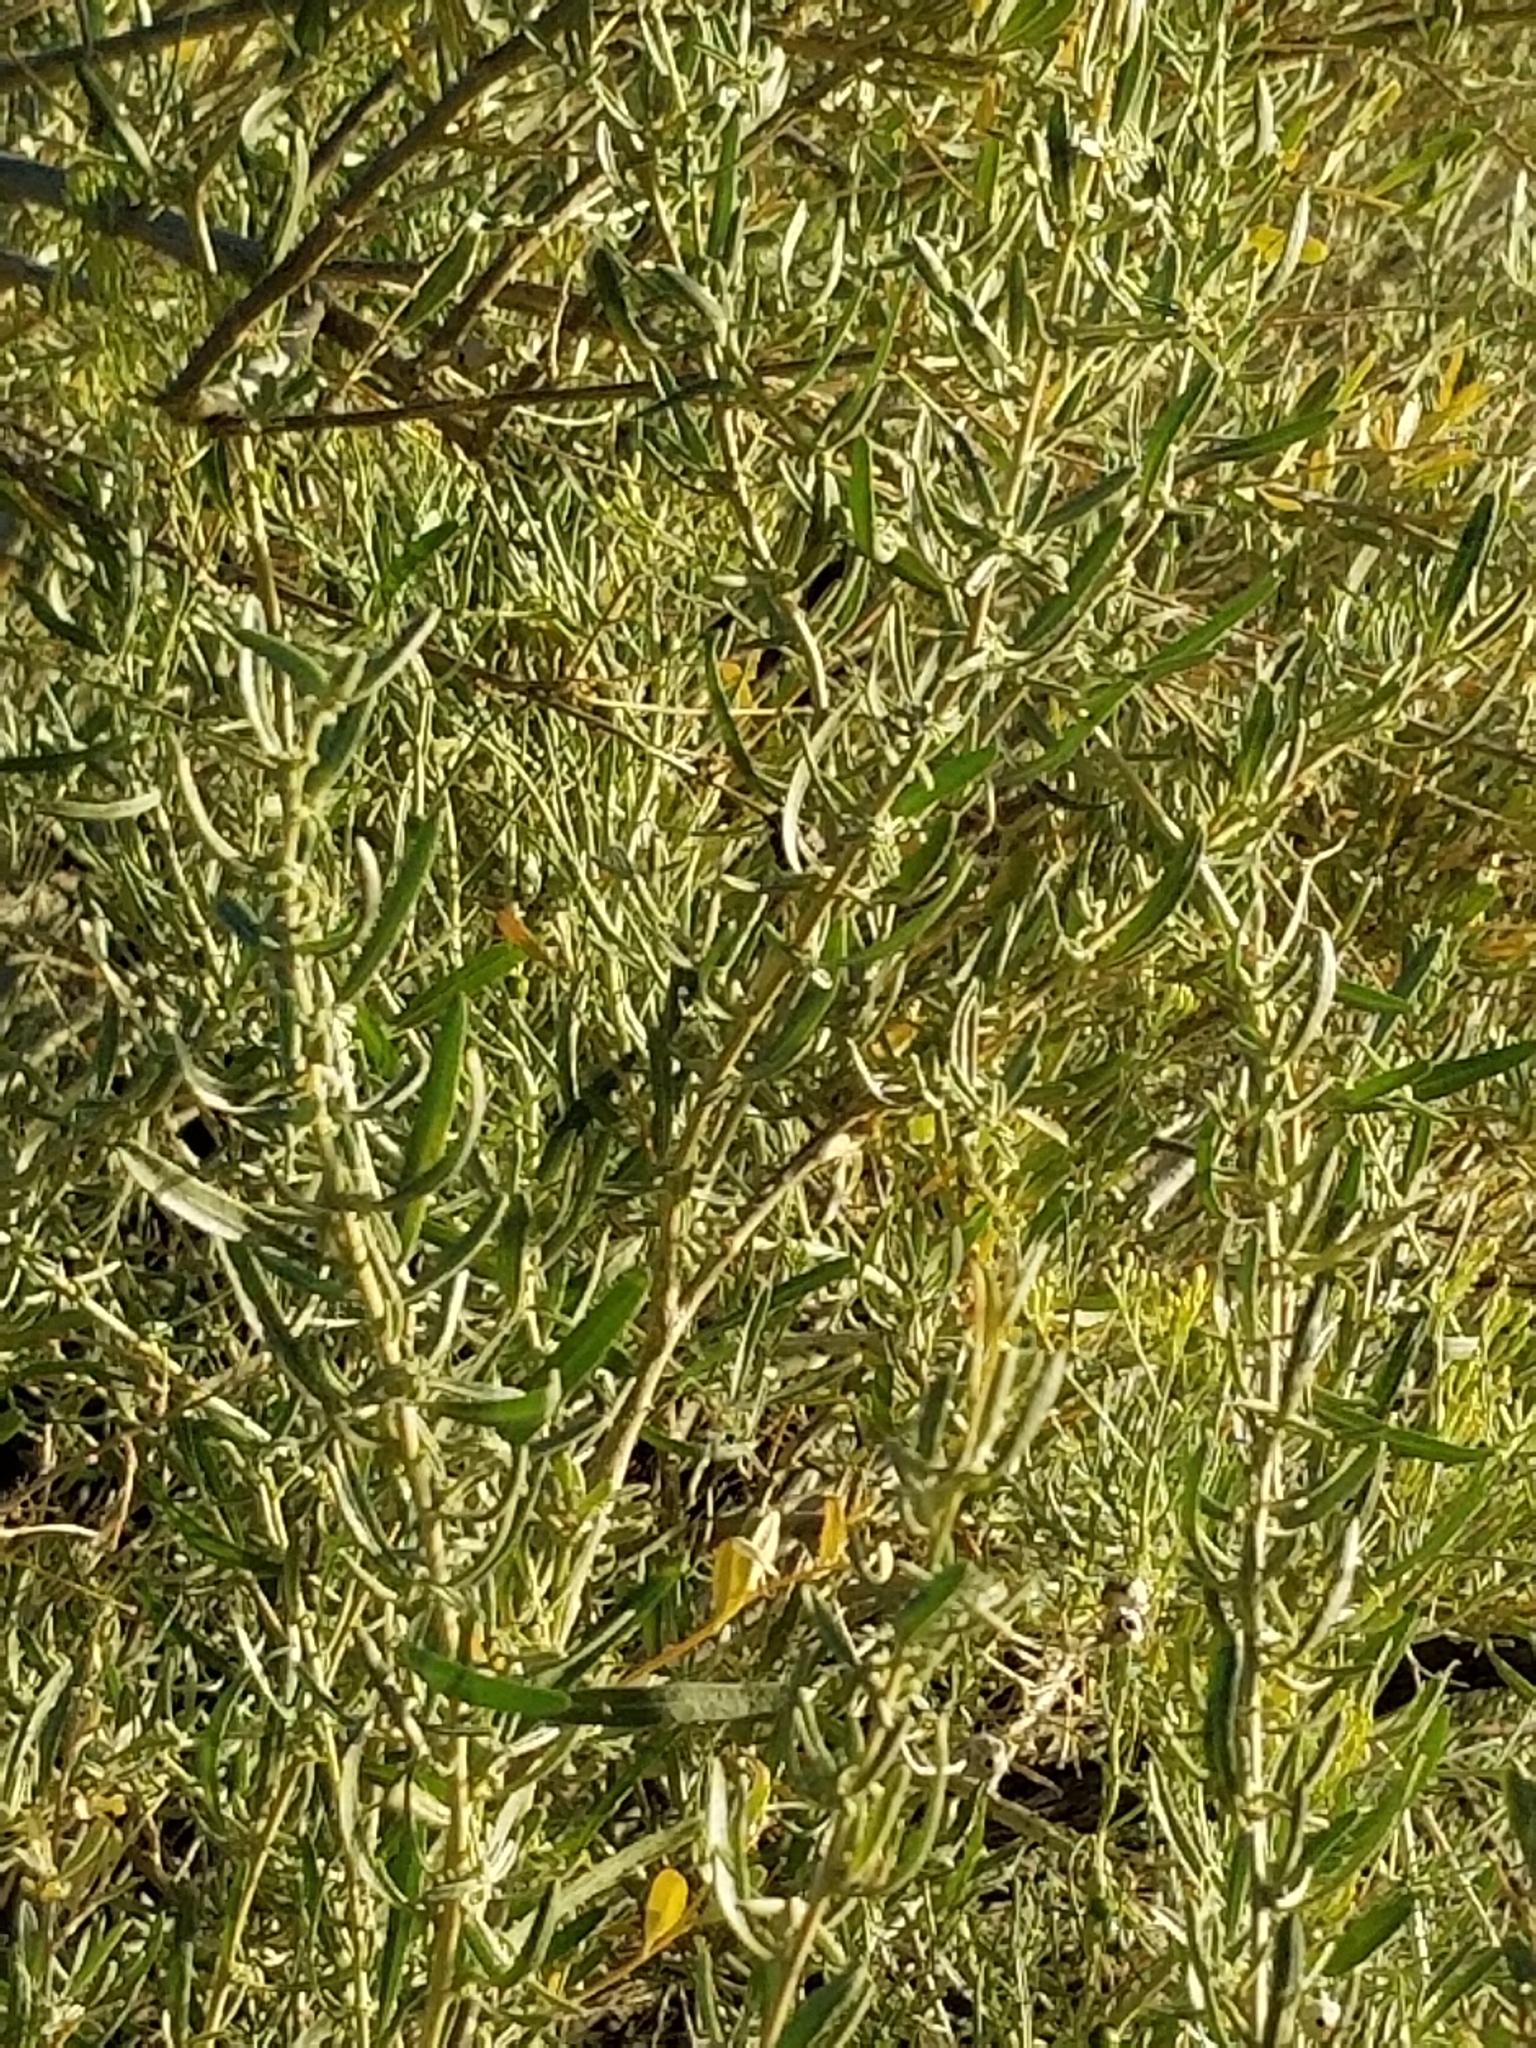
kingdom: Plantae
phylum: Tracheophyta
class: Magnoliopsida
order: Caryophyllales
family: Amaranthaceae
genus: Atriplex
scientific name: Atriplex canescens
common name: Four-wing saltbush
